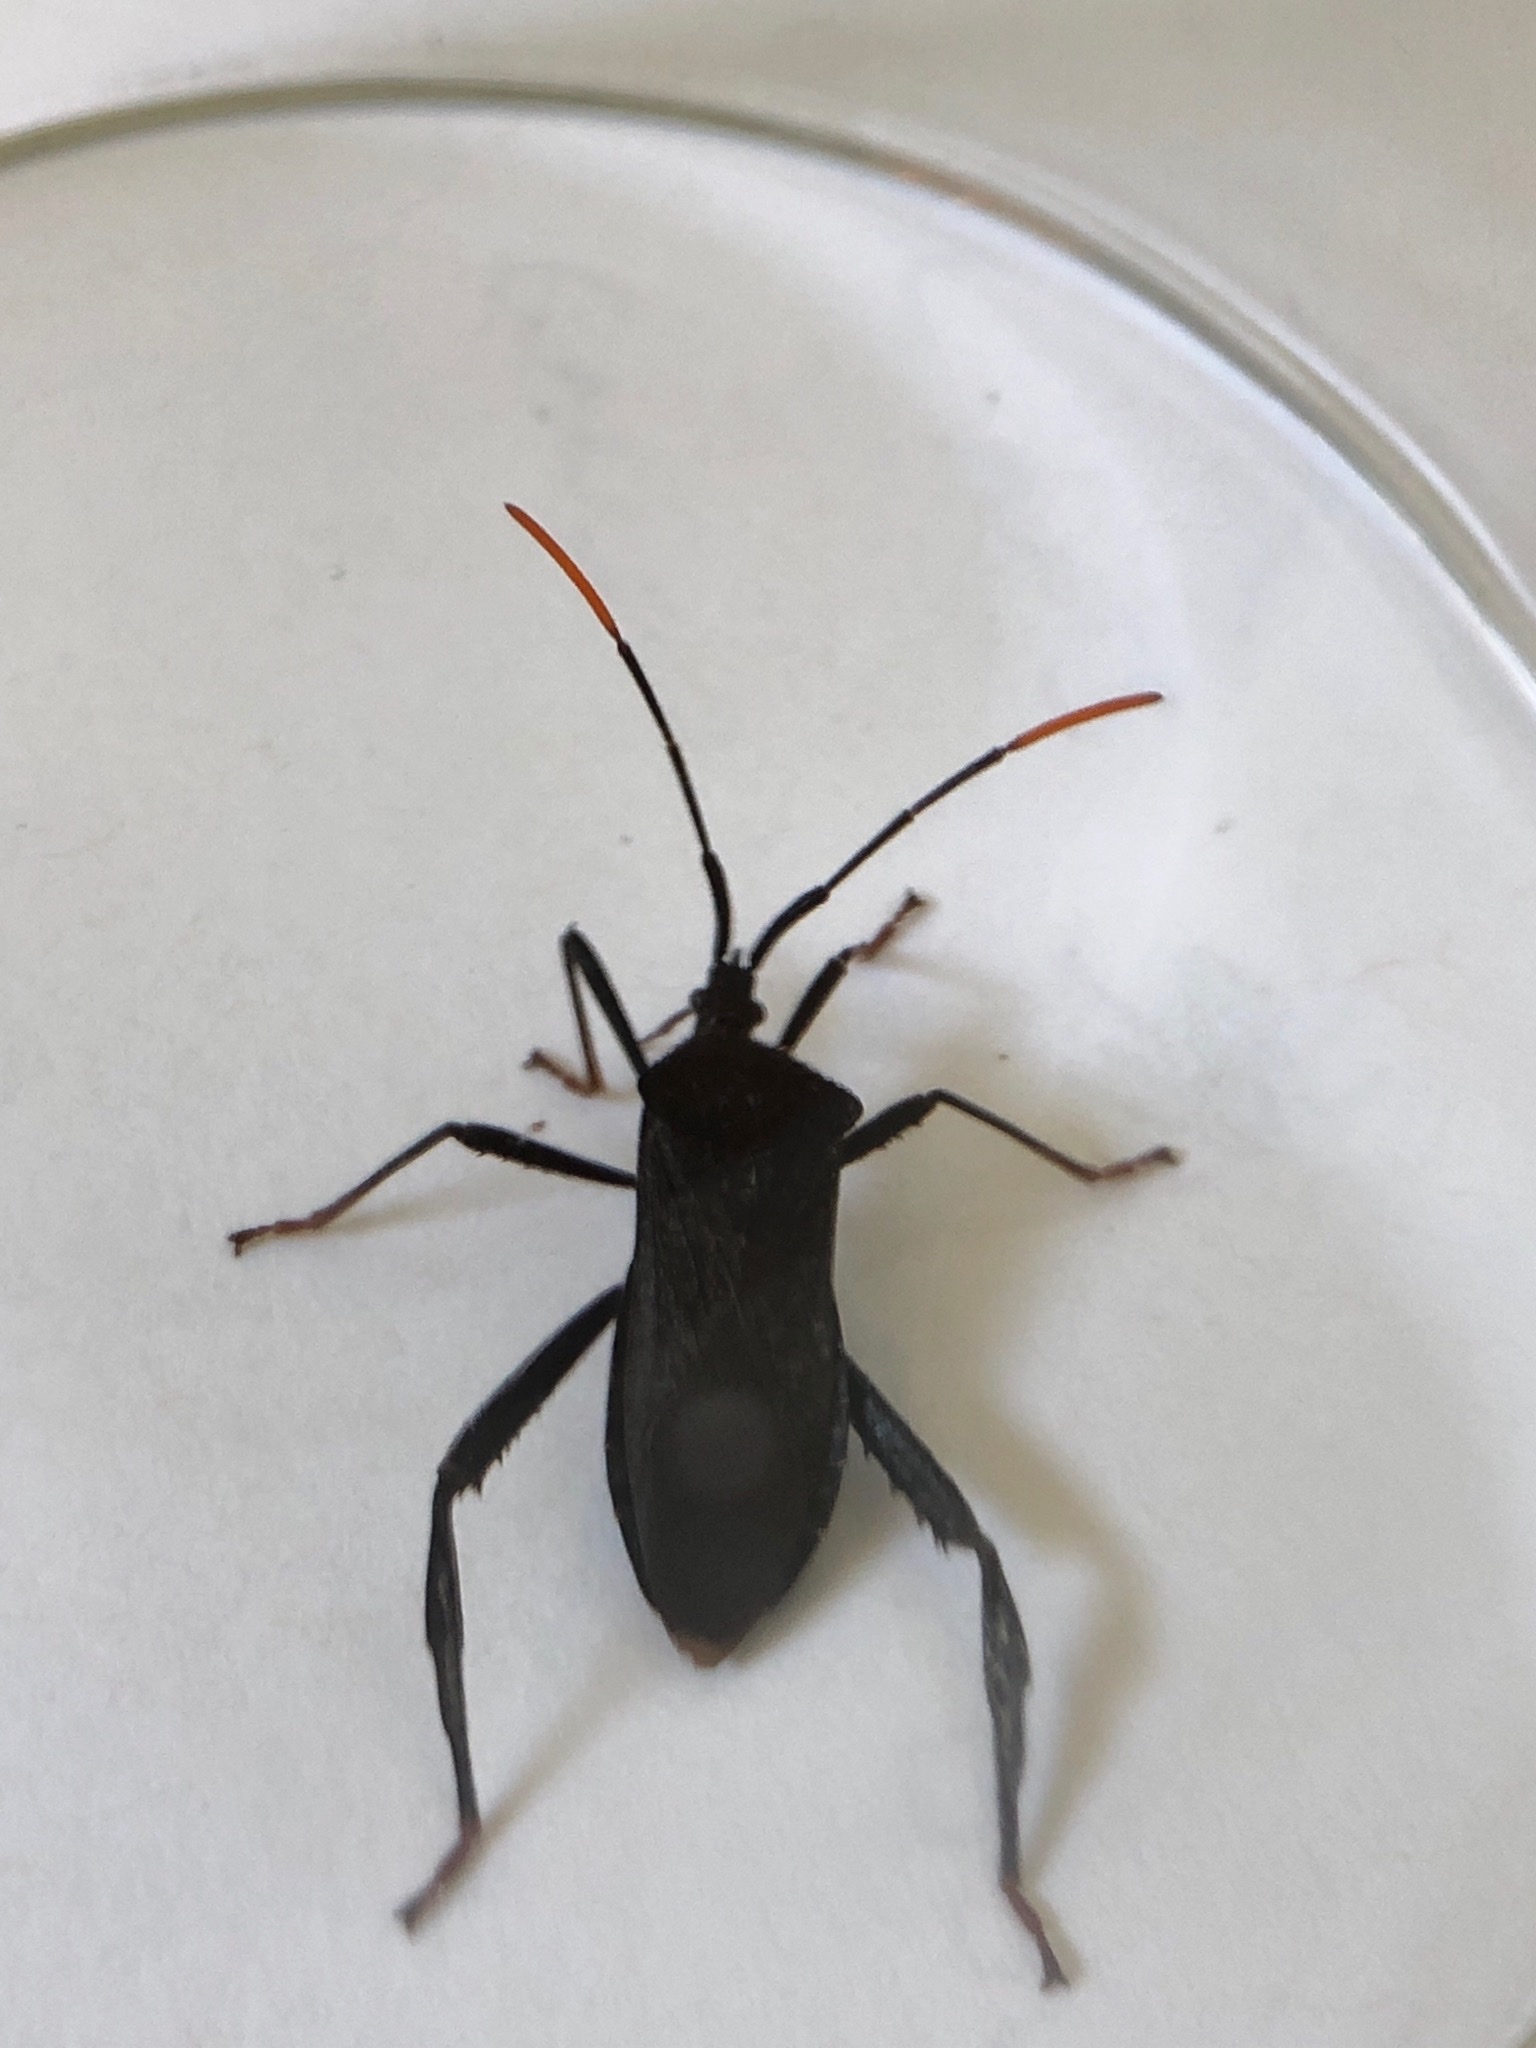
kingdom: Animalia
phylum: Arthropoda
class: Insecta
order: Hemiptera
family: Coreidae
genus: Acanthocephala
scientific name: Acanthocephala terminalis
